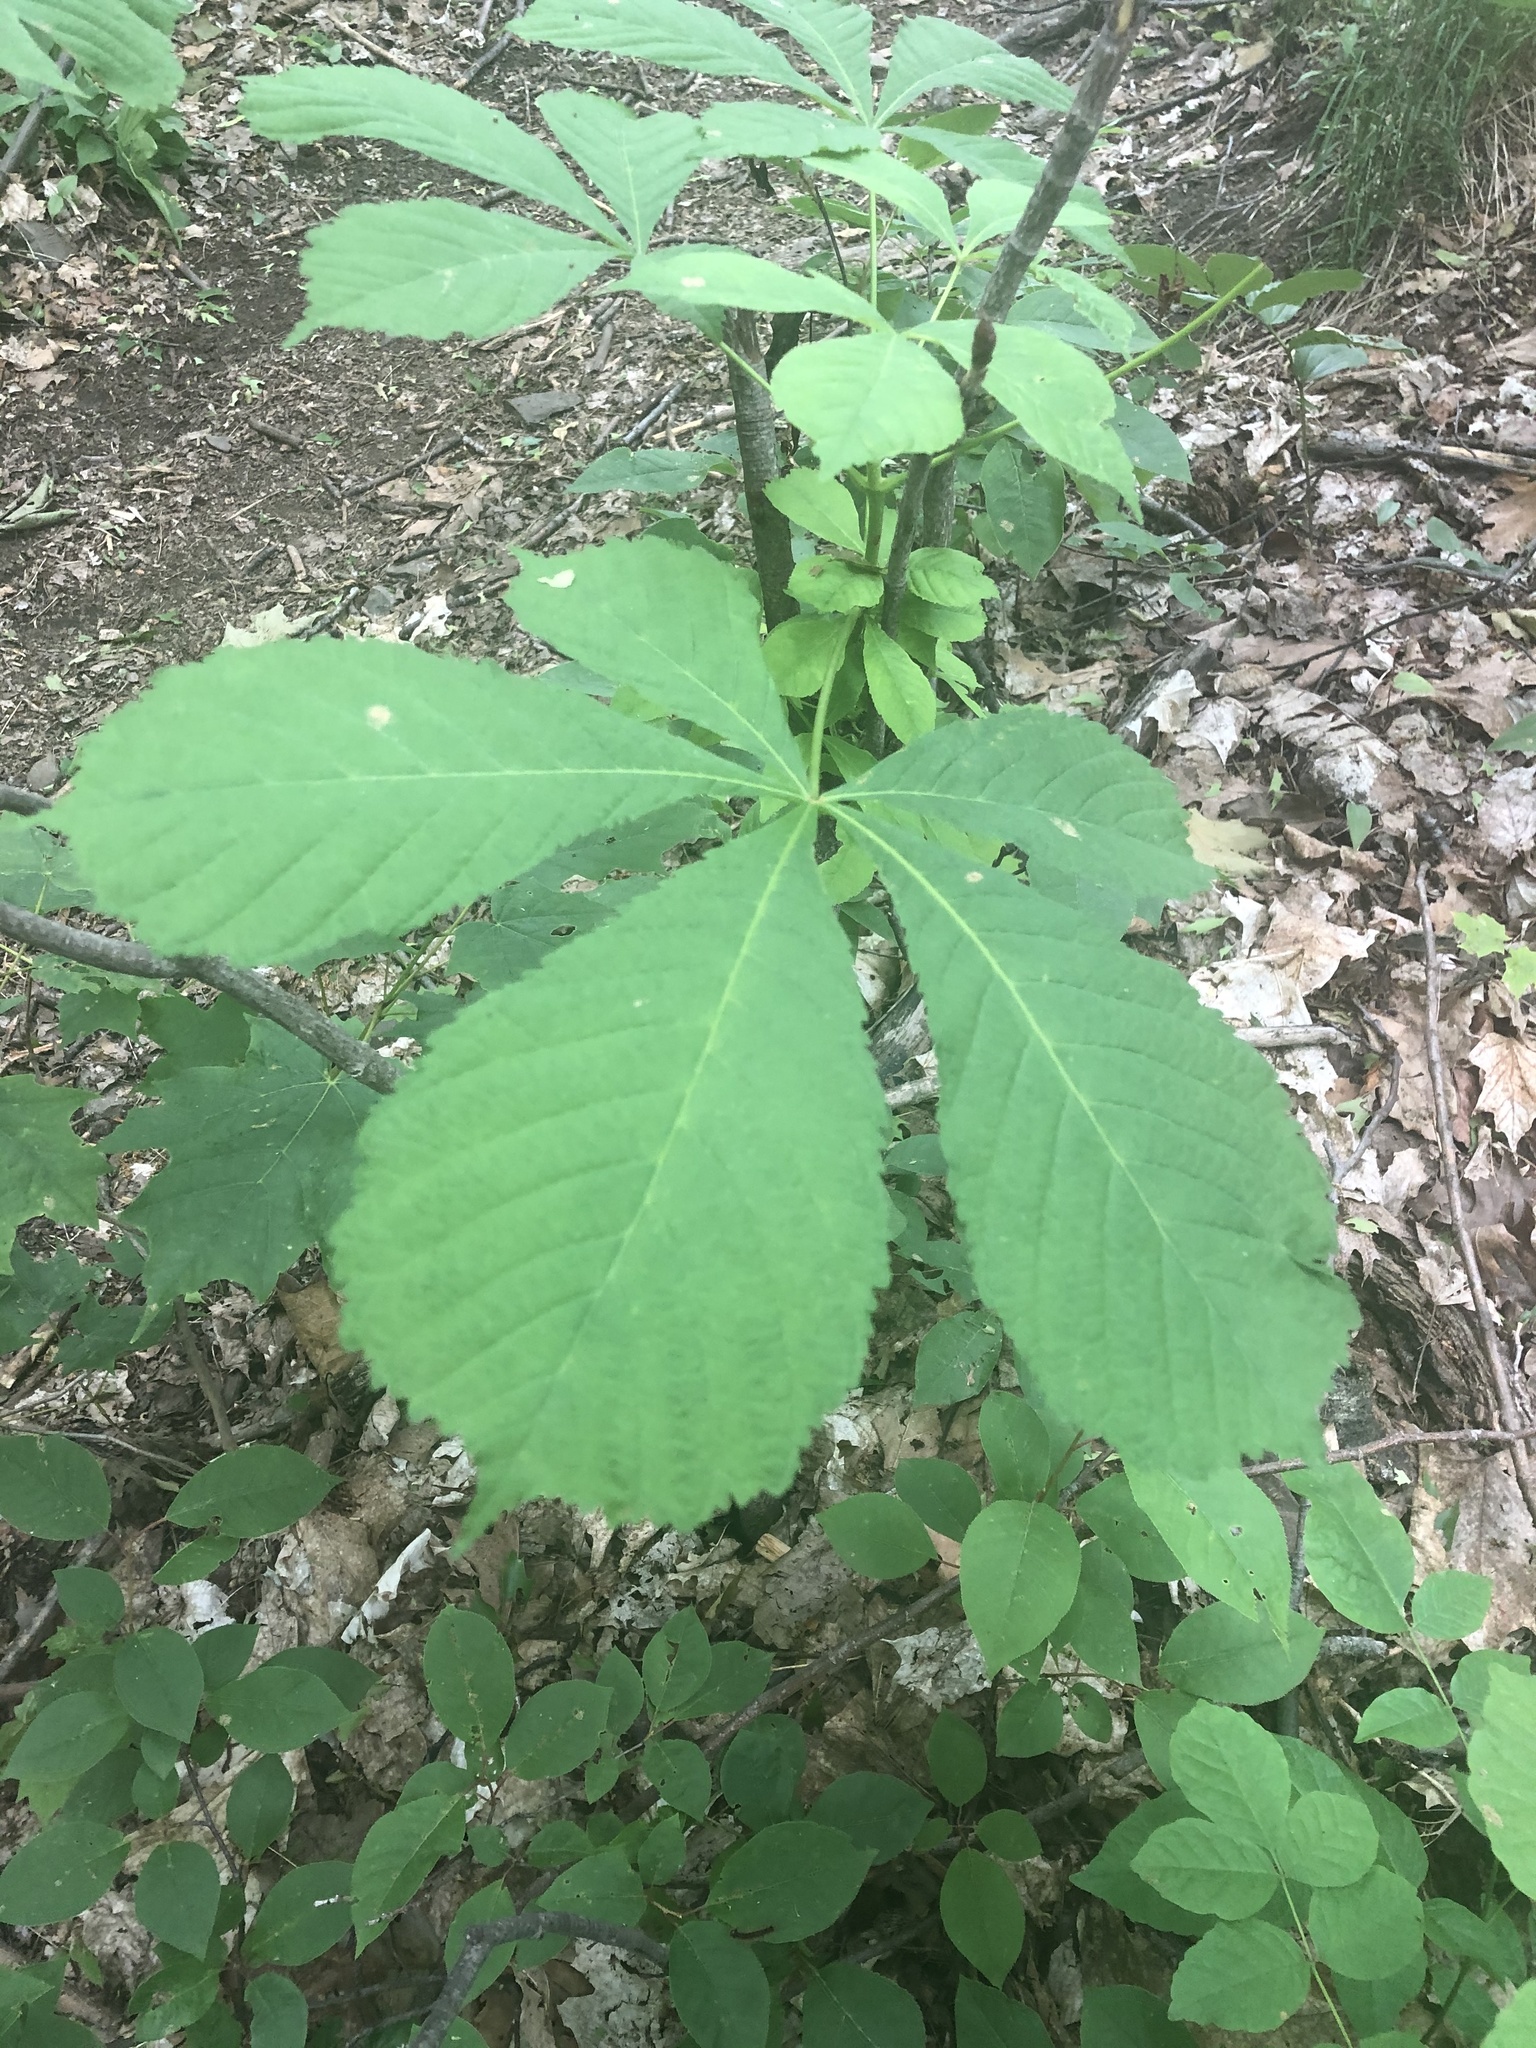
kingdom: Plantae
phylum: Tracheophyta
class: Magnoliopsida
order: Sapindales
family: Sapindaceae
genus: Aesculus
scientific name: Aesculus hippocastanum
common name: Horse-chestnut
